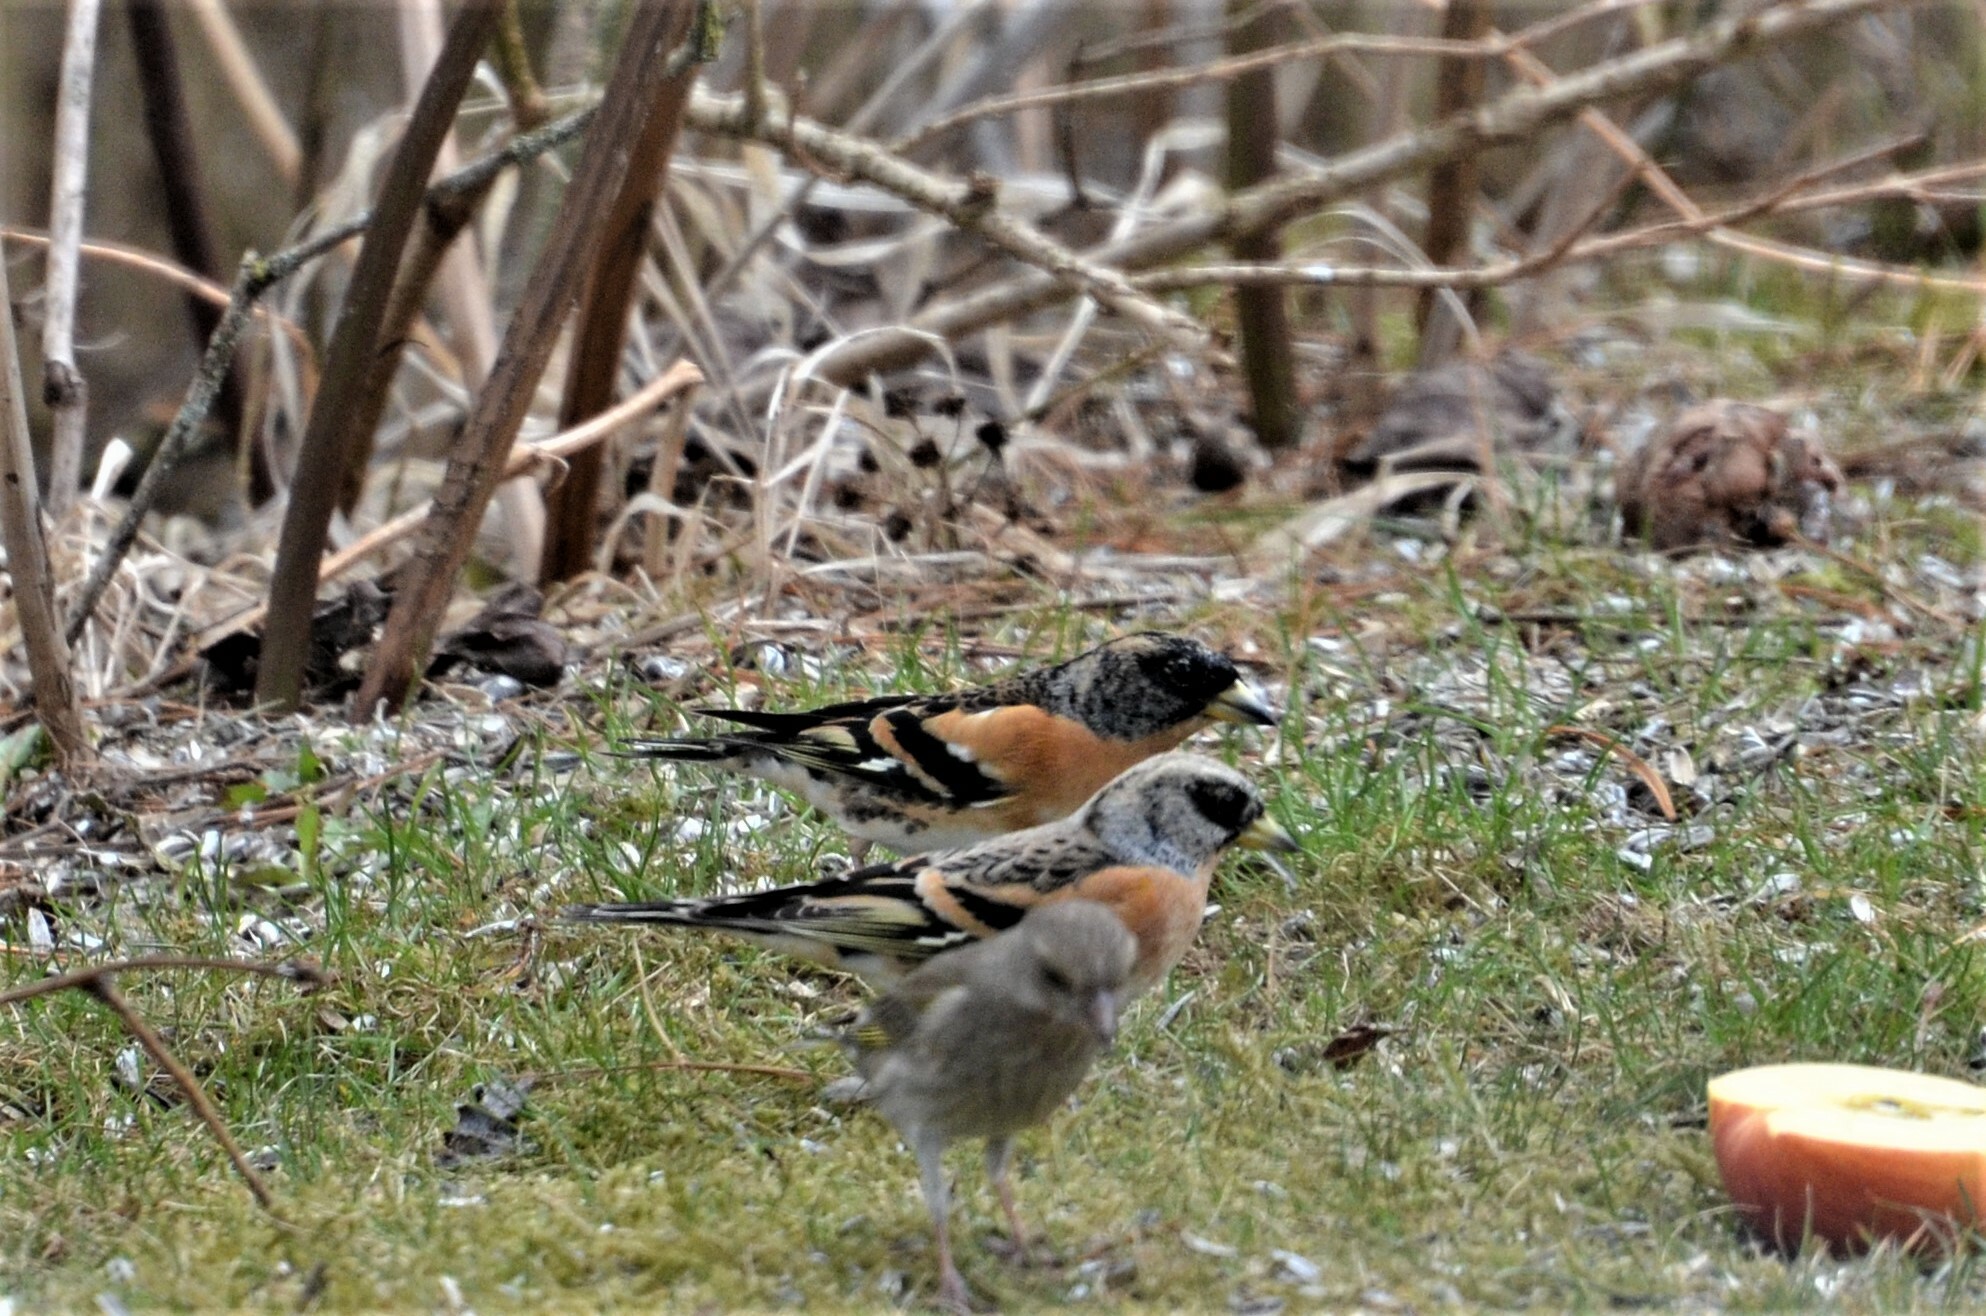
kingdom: Animalia
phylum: Chordata
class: Aves
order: Passeriformes
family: Fringillidae
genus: Fringilla
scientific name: Fringilla montifringilla
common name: Brambling
